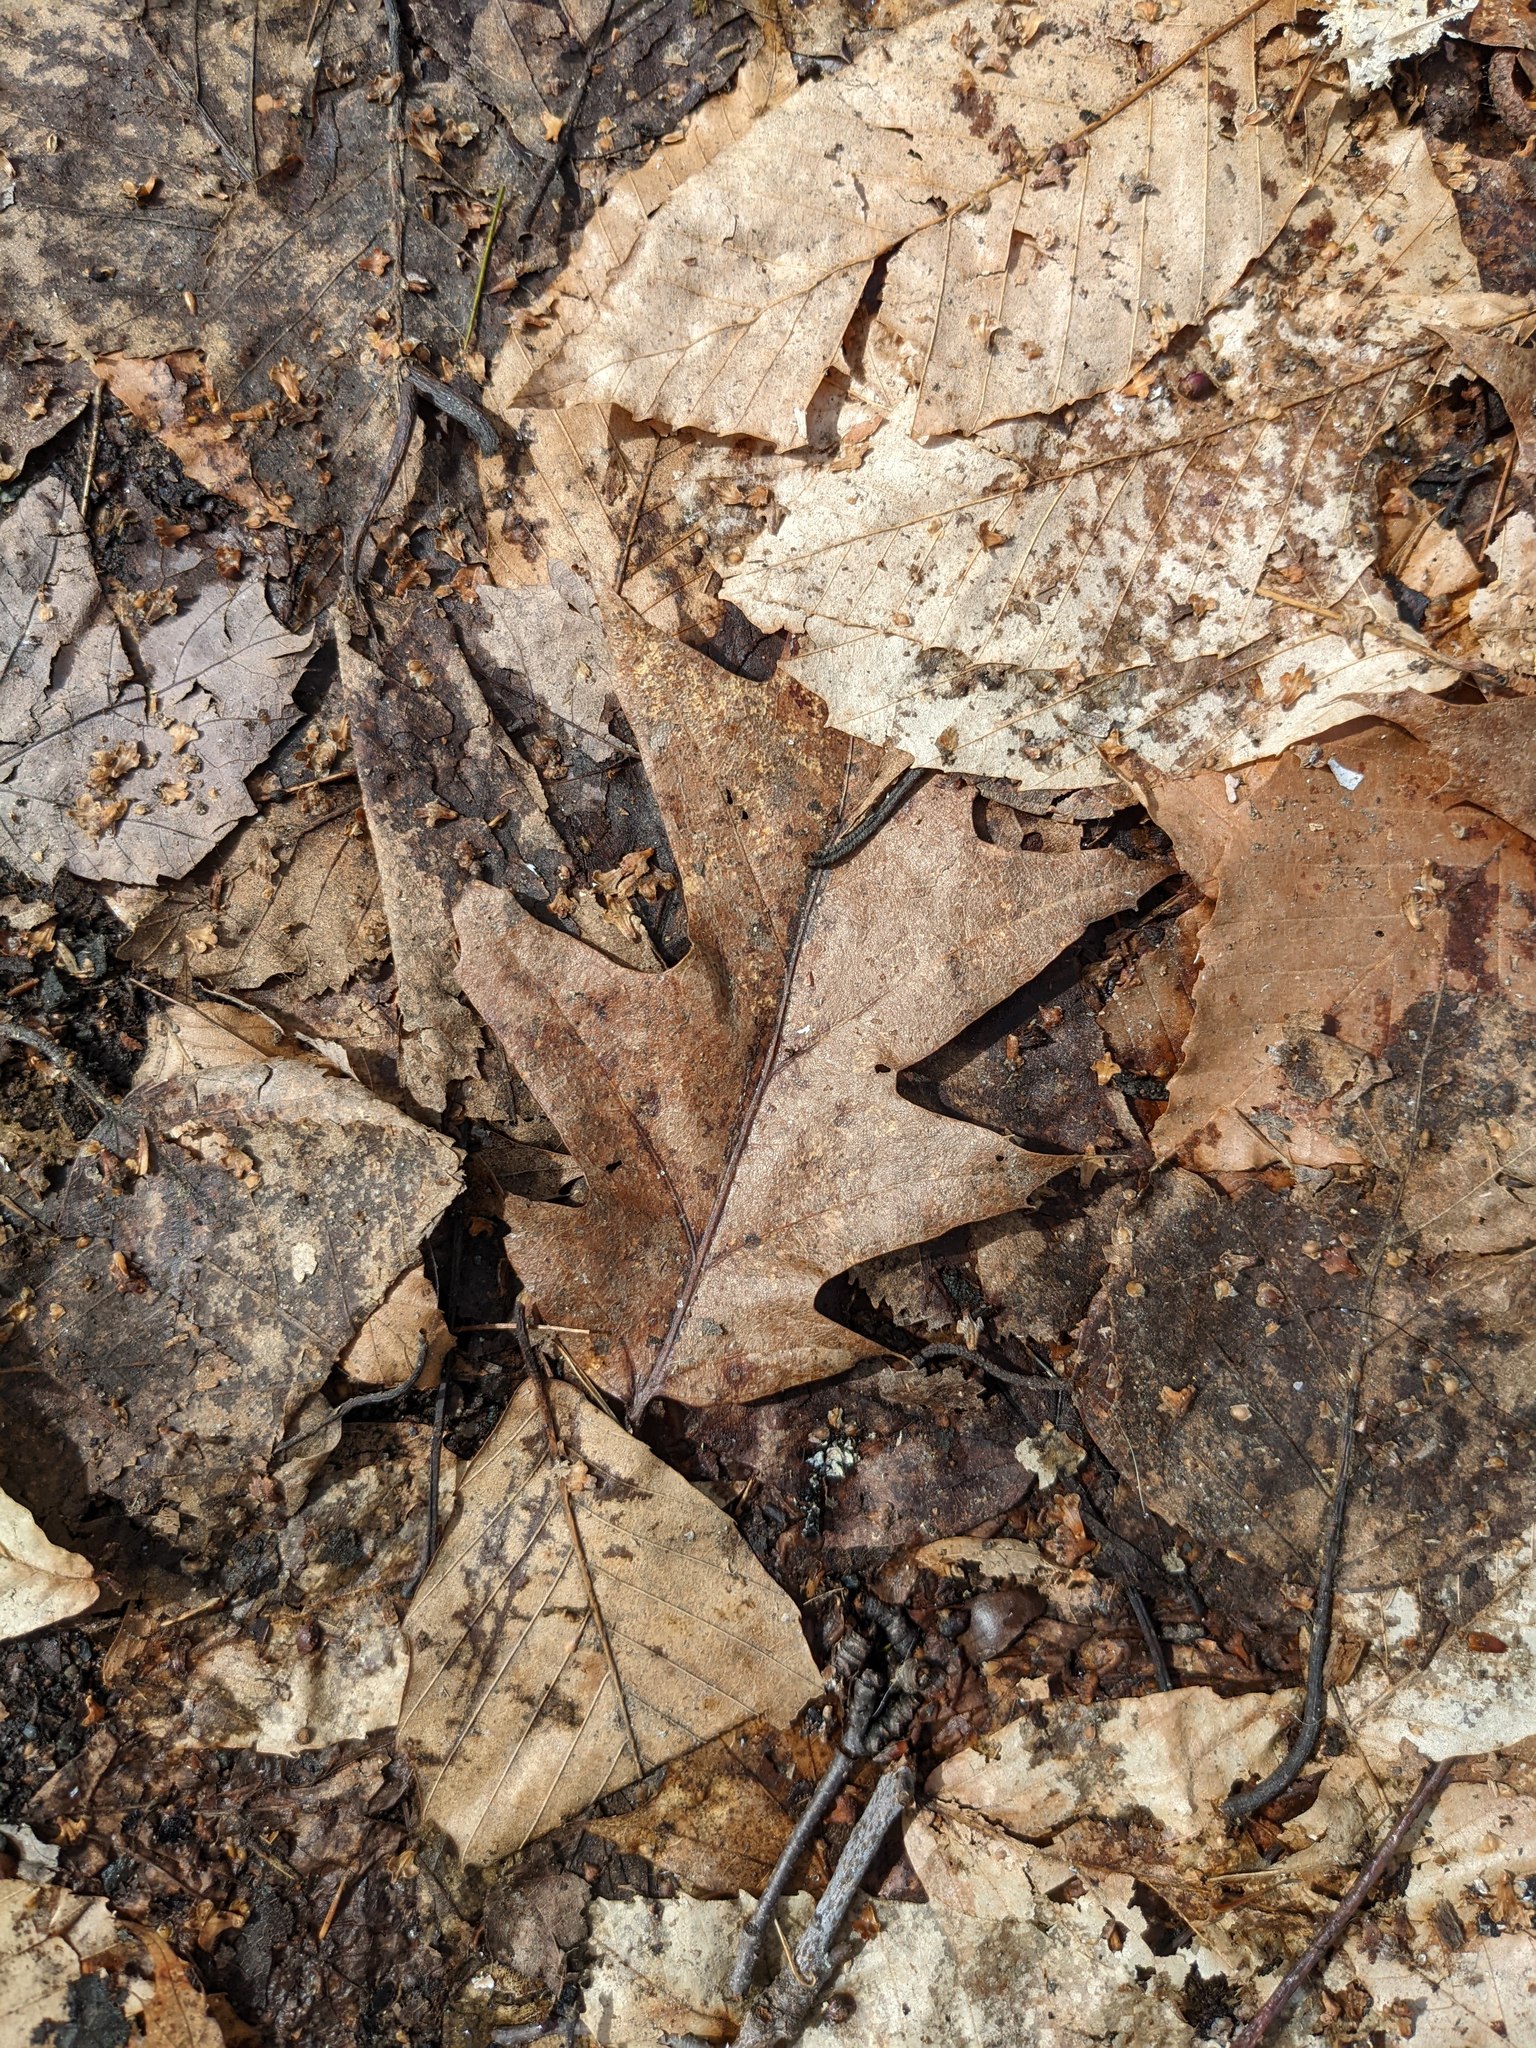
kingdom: Plantae
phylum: Tracheophyta
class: Magnoliopsida
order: Fagales
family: Fagaceae
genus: Quercus
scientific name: Quercus rubra
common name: Red oak
